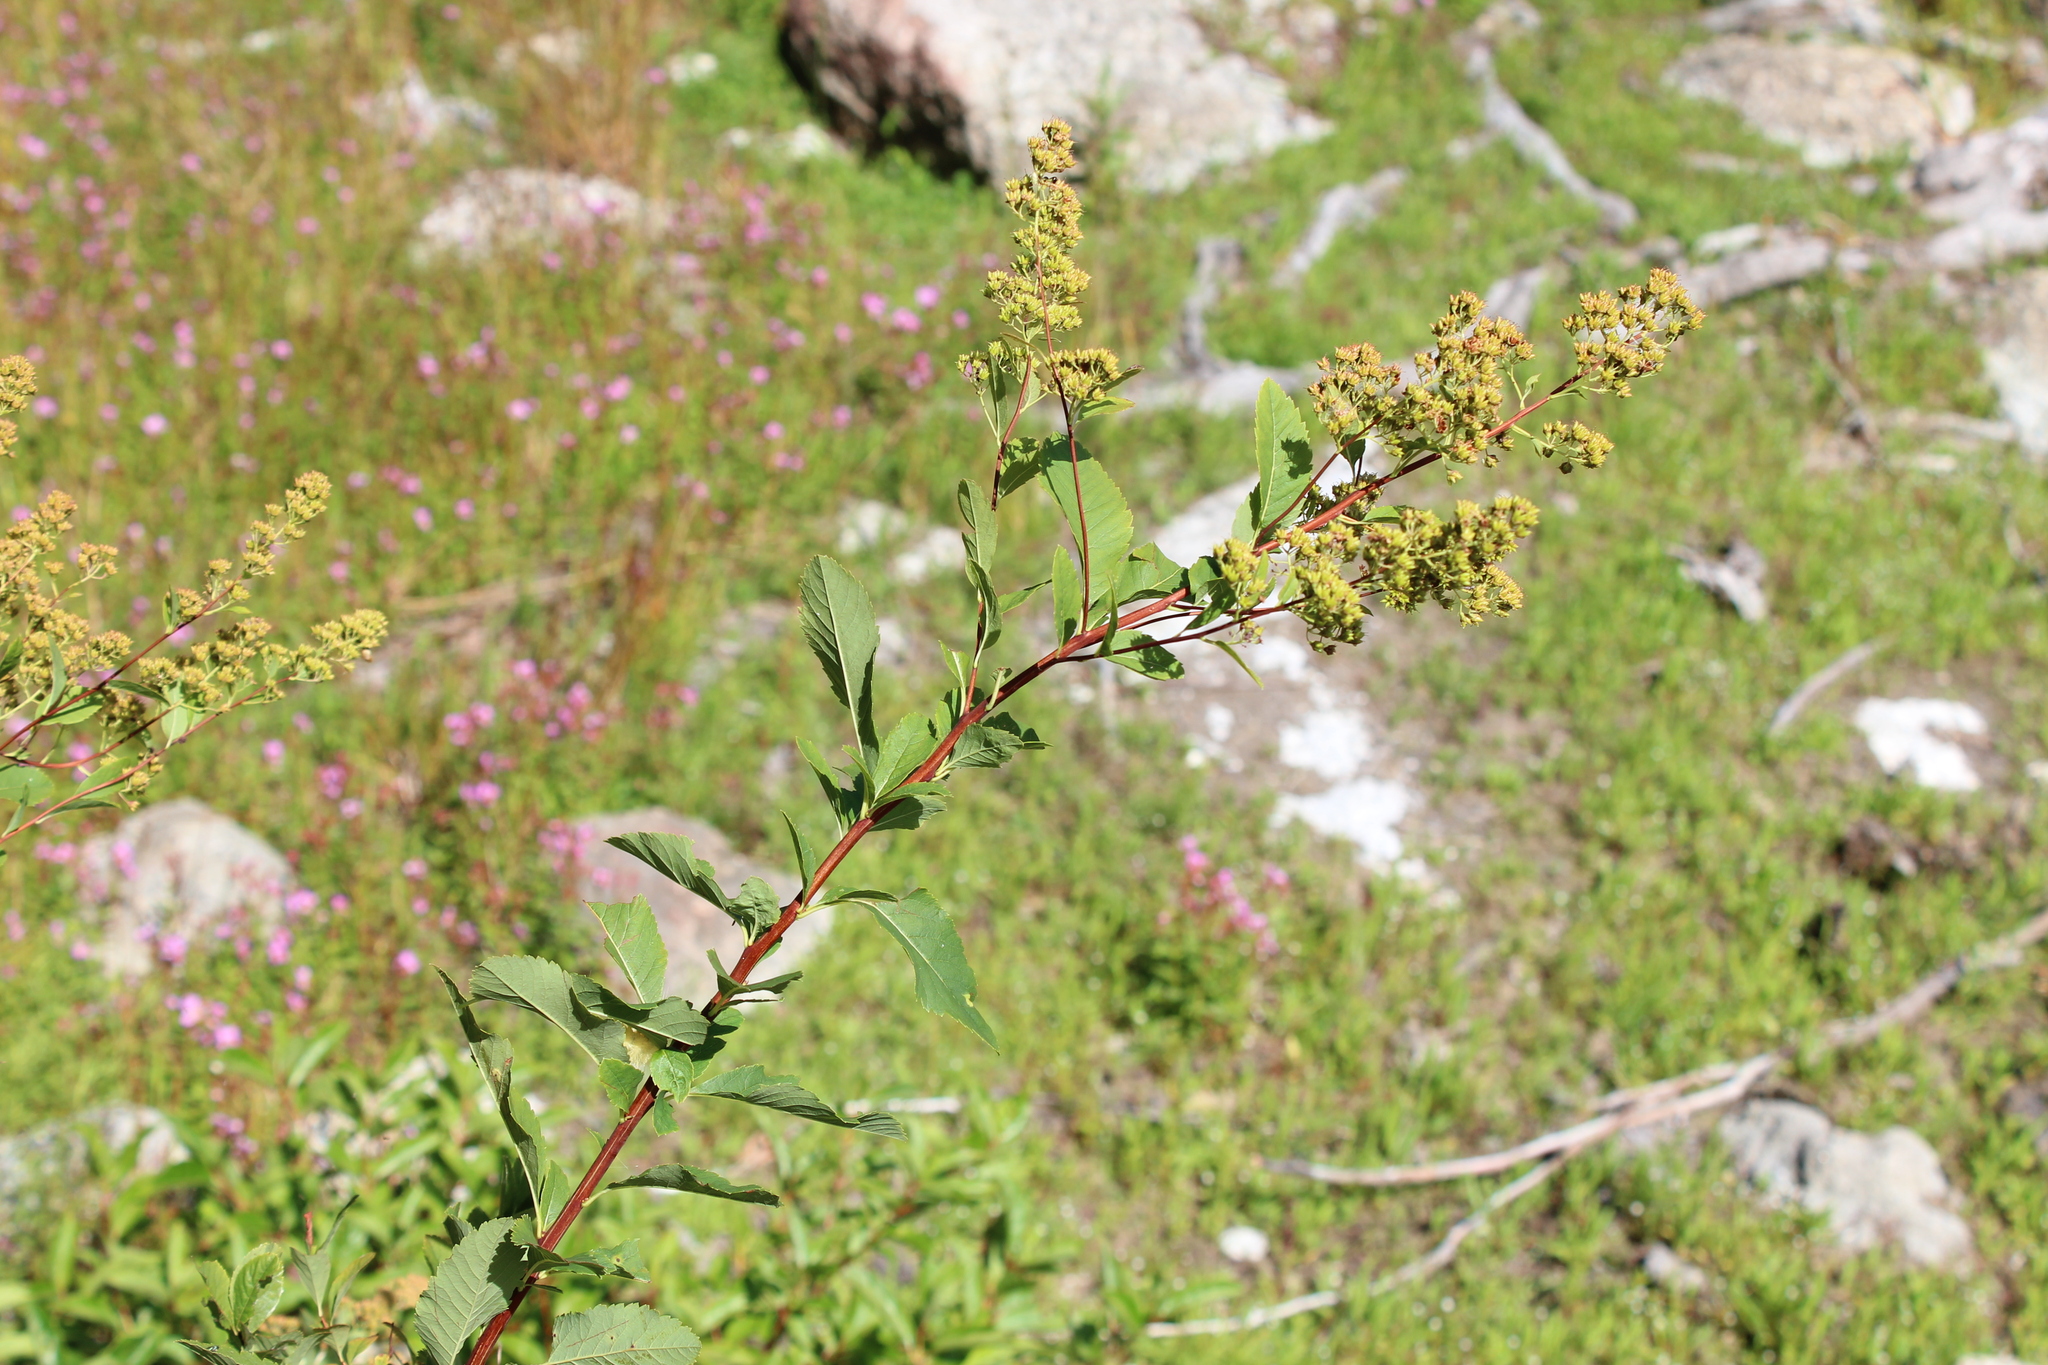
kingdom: Plantae
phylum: Tracheophyta
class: Magnoliopsida
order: Rosales
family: Rosaceae
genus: Spiraea
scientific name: Spiraea alba
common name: Pale bridewort
